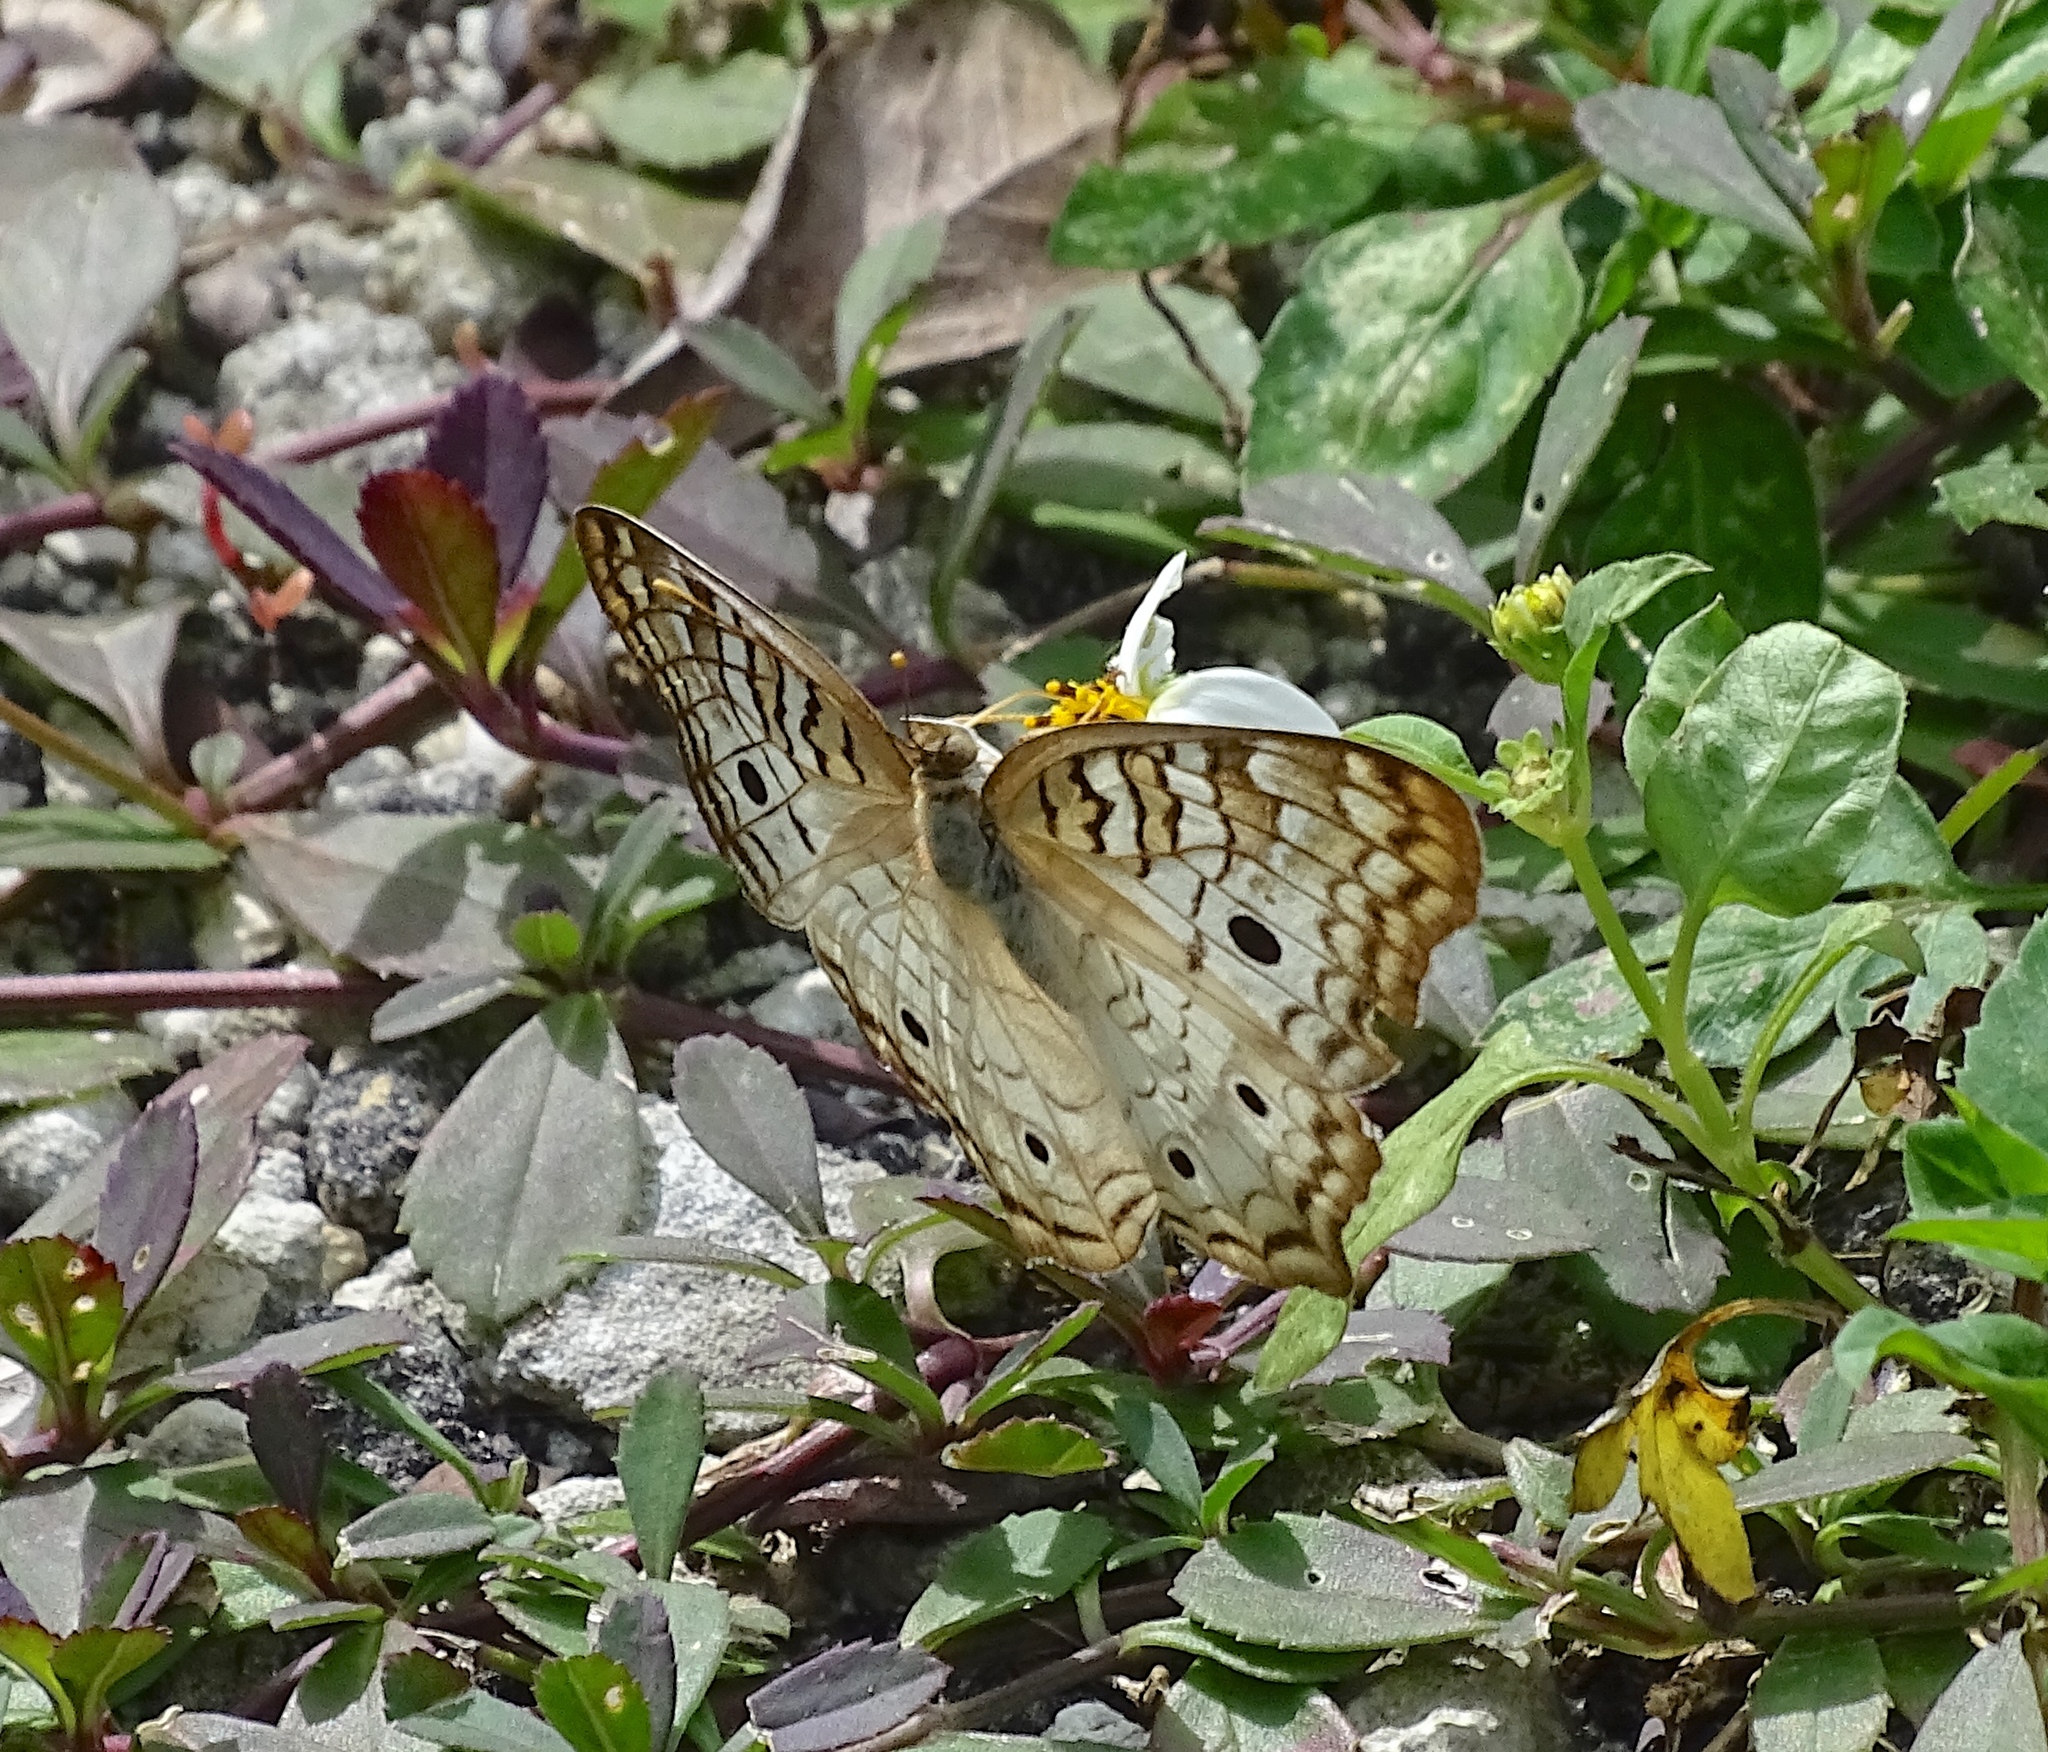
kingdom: Animalia
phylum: Arthropoda
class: Insecta
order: Lepidoptera
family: Nymphalidae
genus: Anartia
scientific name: Anartia jatrophae
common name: White peacock
